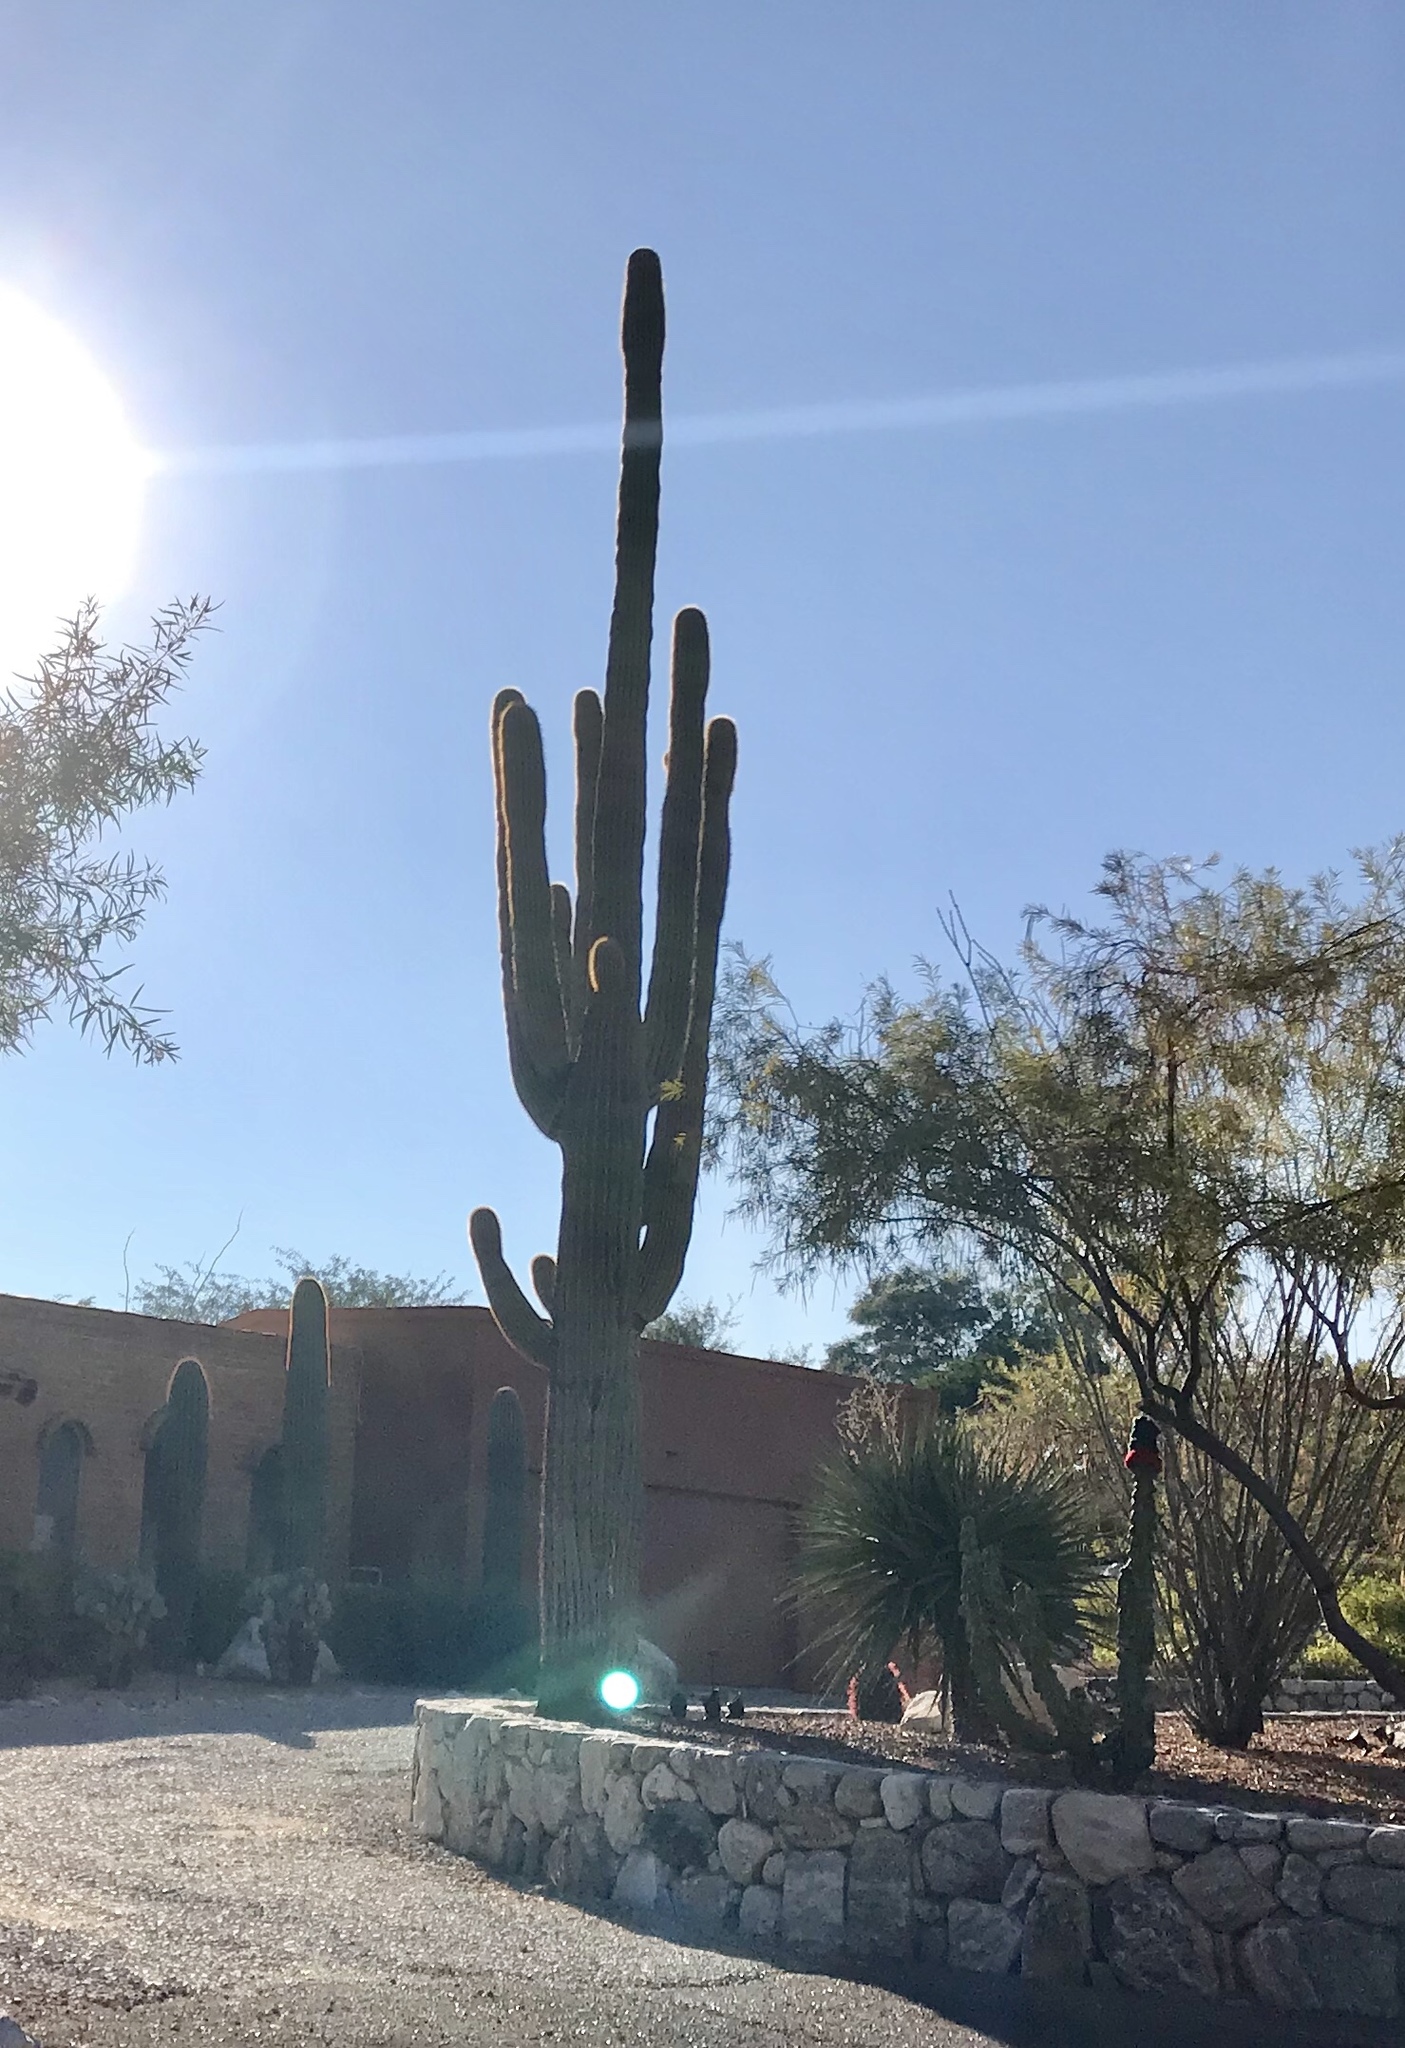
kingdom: Plantae
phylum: Tracheophyta
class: Magnoliopsida
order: Caryophyllales
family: Cactaceae
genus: Carnegiea
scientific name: Carnegiea gigantea
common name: Saguaro
